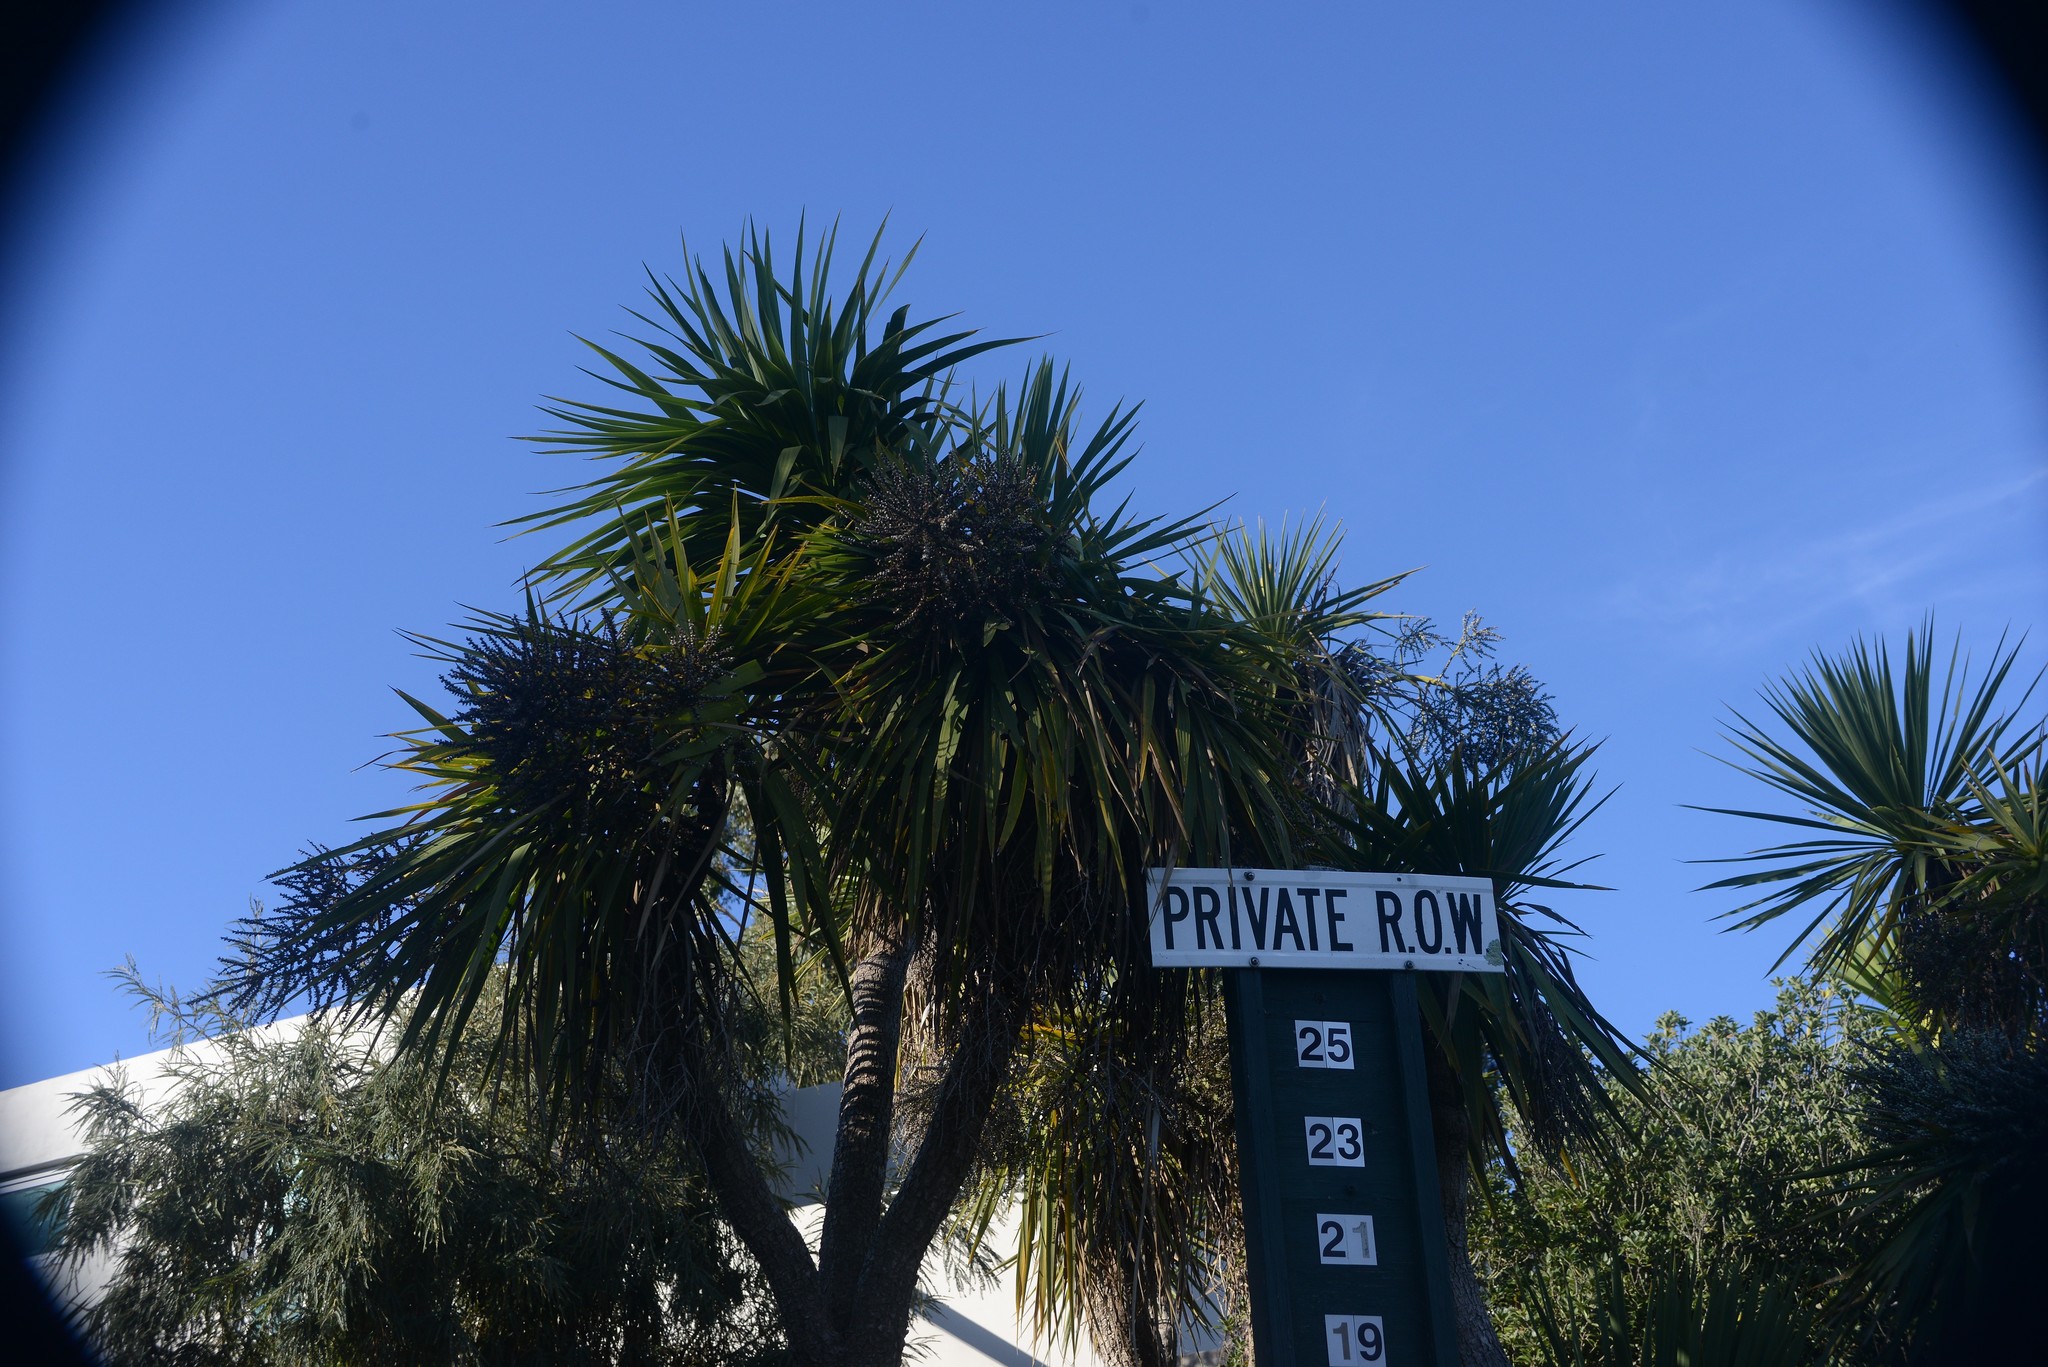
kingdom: Plantae
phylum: Tracheophyta
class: Liliopsida
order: Asparagales
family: Asparagaceae
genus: Cordyline
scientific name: Cordyline australis
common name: Cabbage-palm
